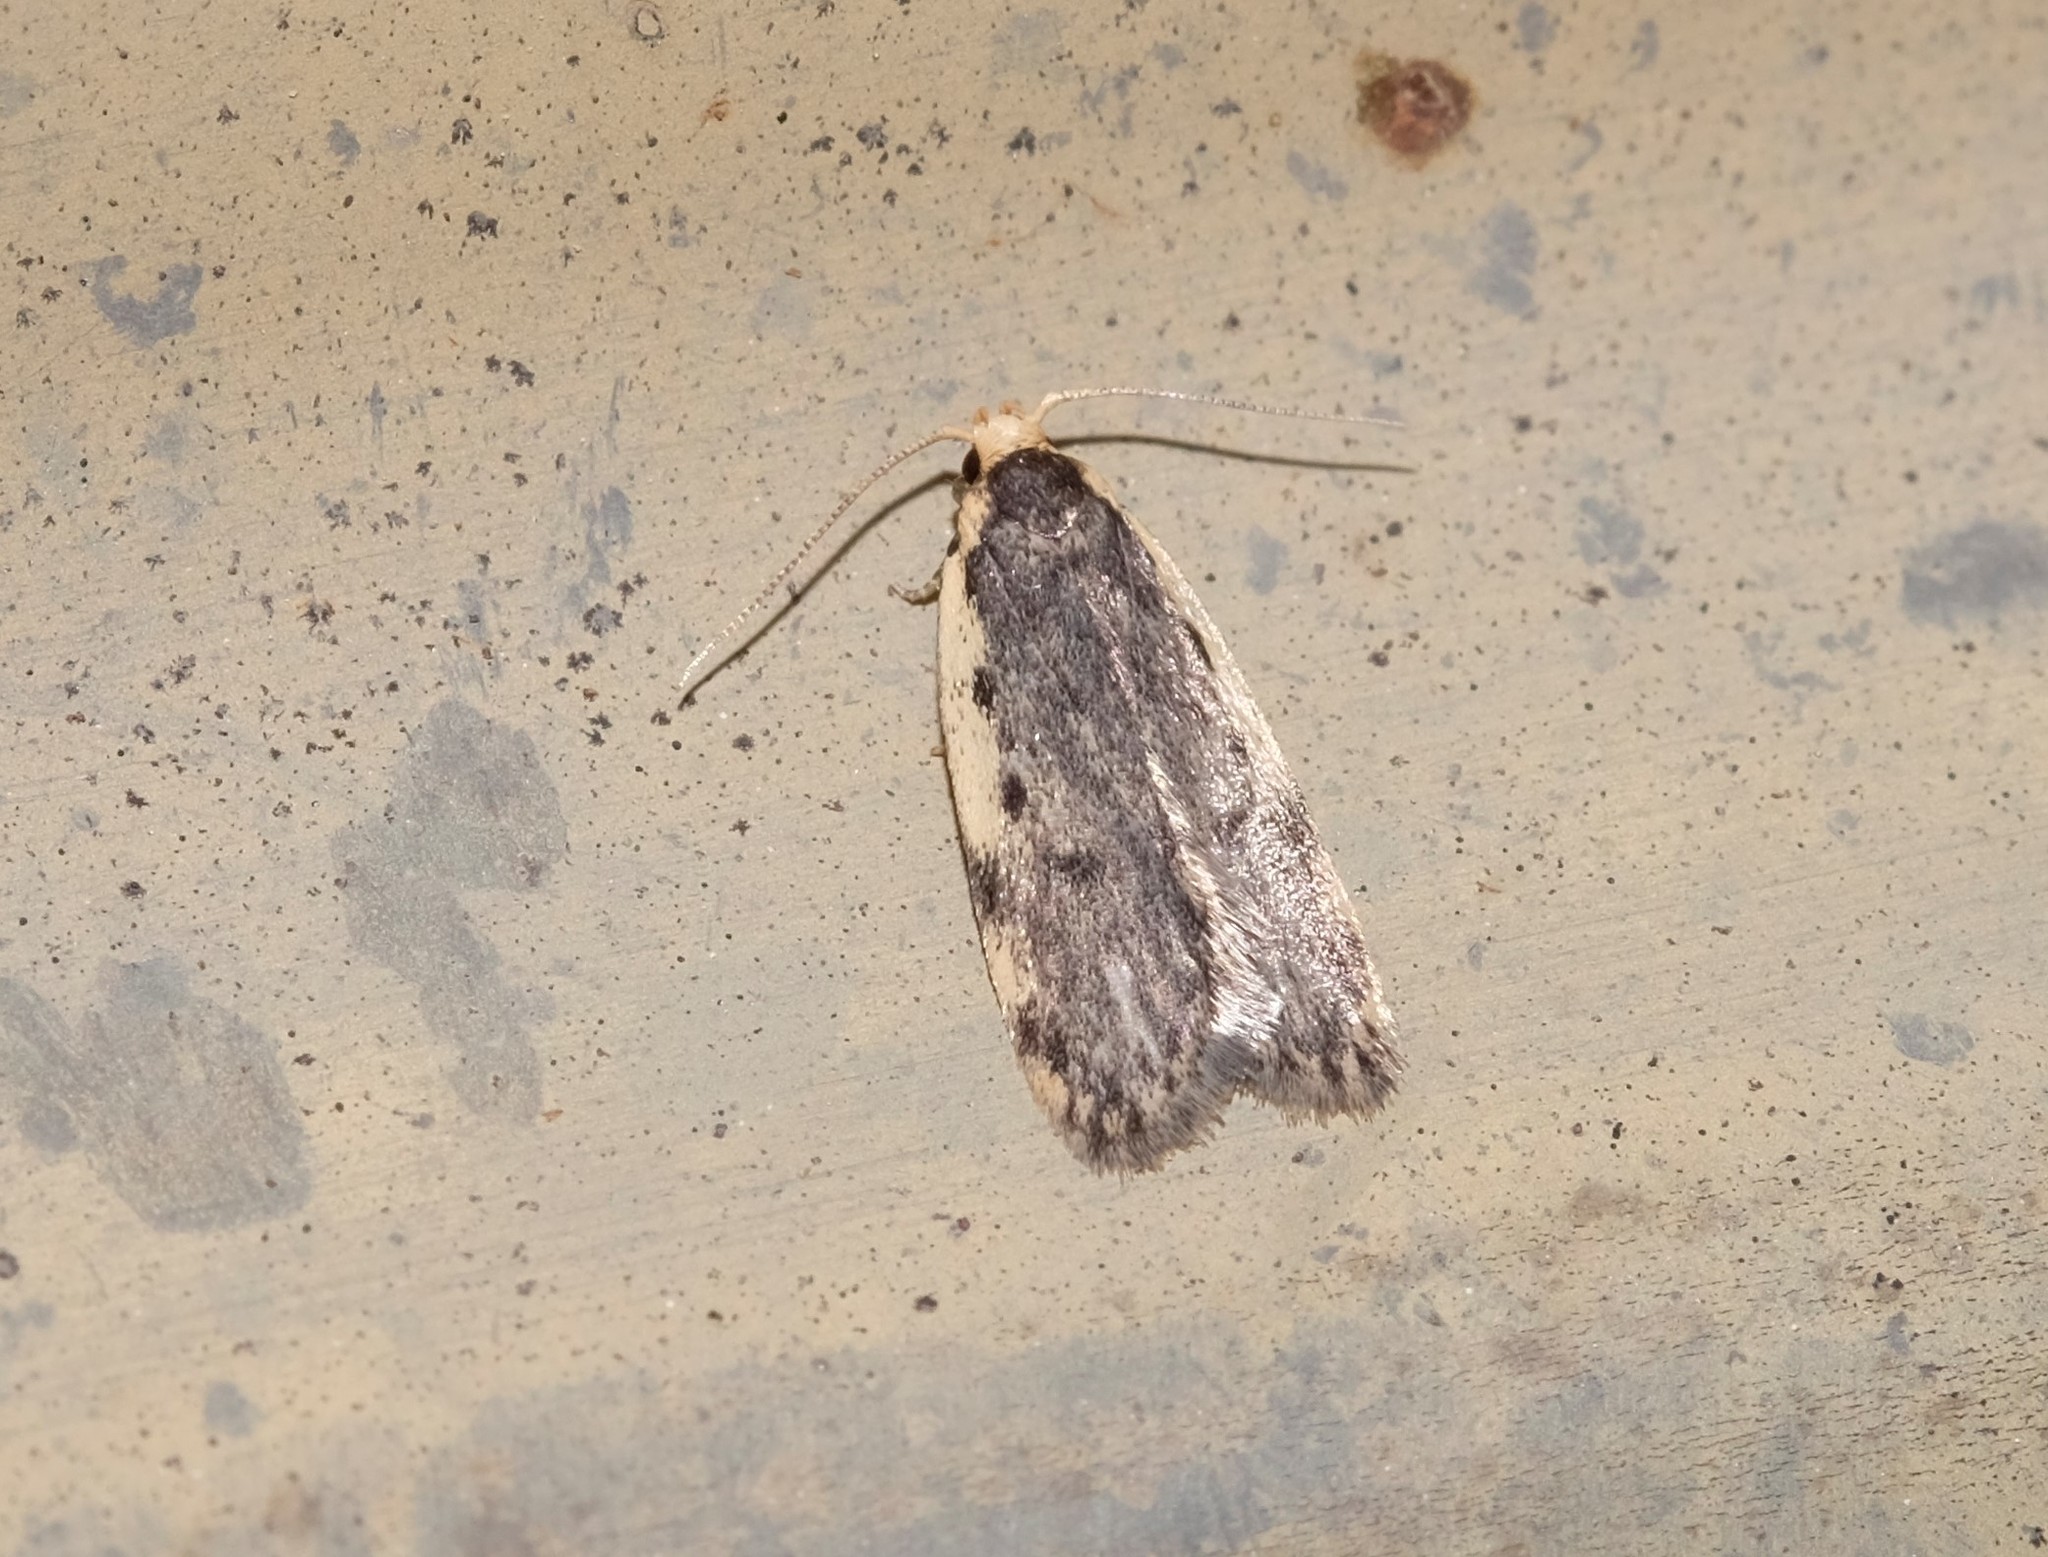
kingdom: Animalia
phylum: Arthropoda
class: Insecta
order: Lepidoptera
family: Oecophoridae
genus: Hoplostega
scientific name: Hoplostega ochroma
